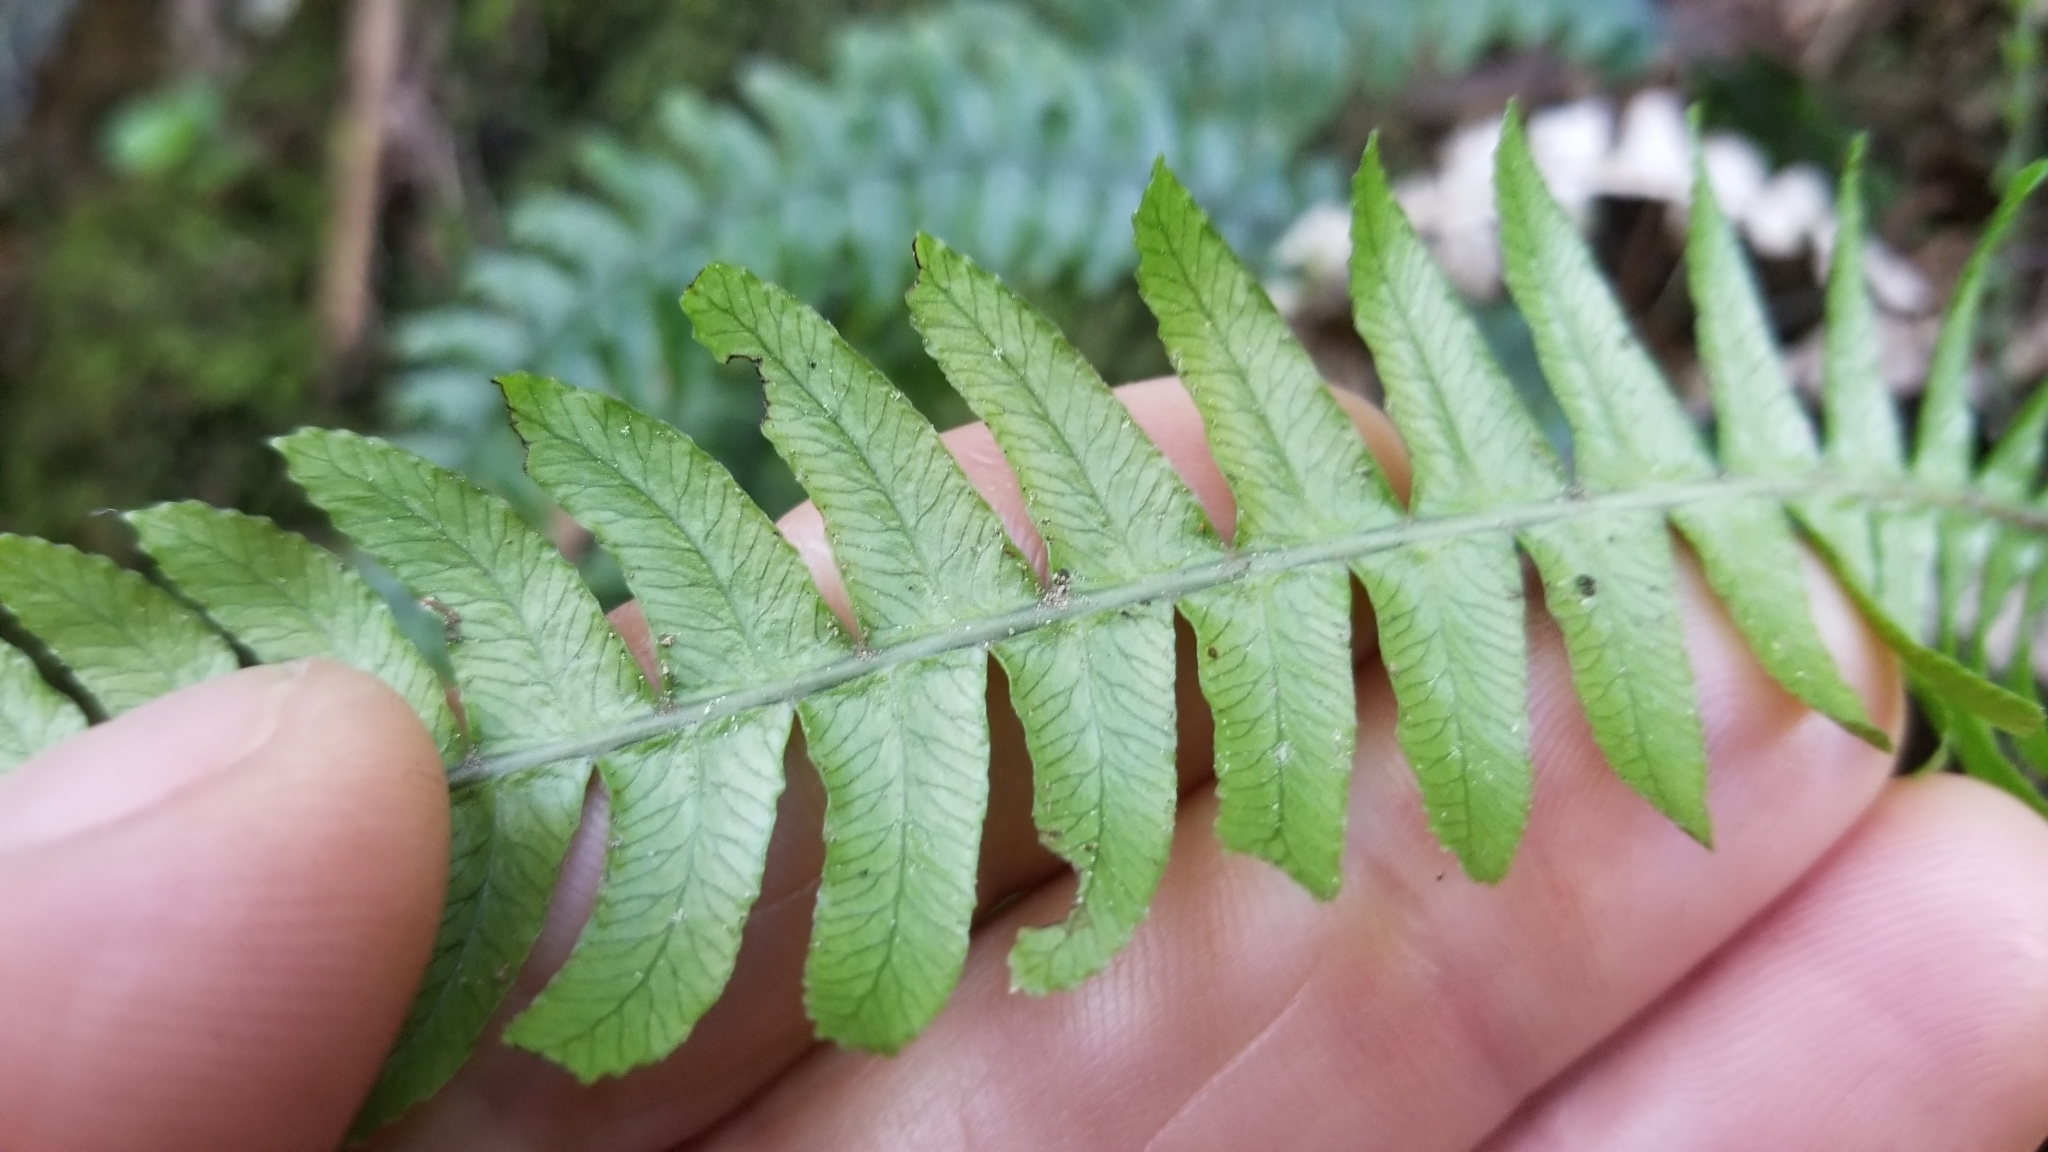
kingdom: Plantae
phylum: Tracheophyta
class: Polypodiopsida
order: Polypodiales
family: Blechnaceae
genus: Austroblechnum
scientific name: Austroblechnum lanceolatum
